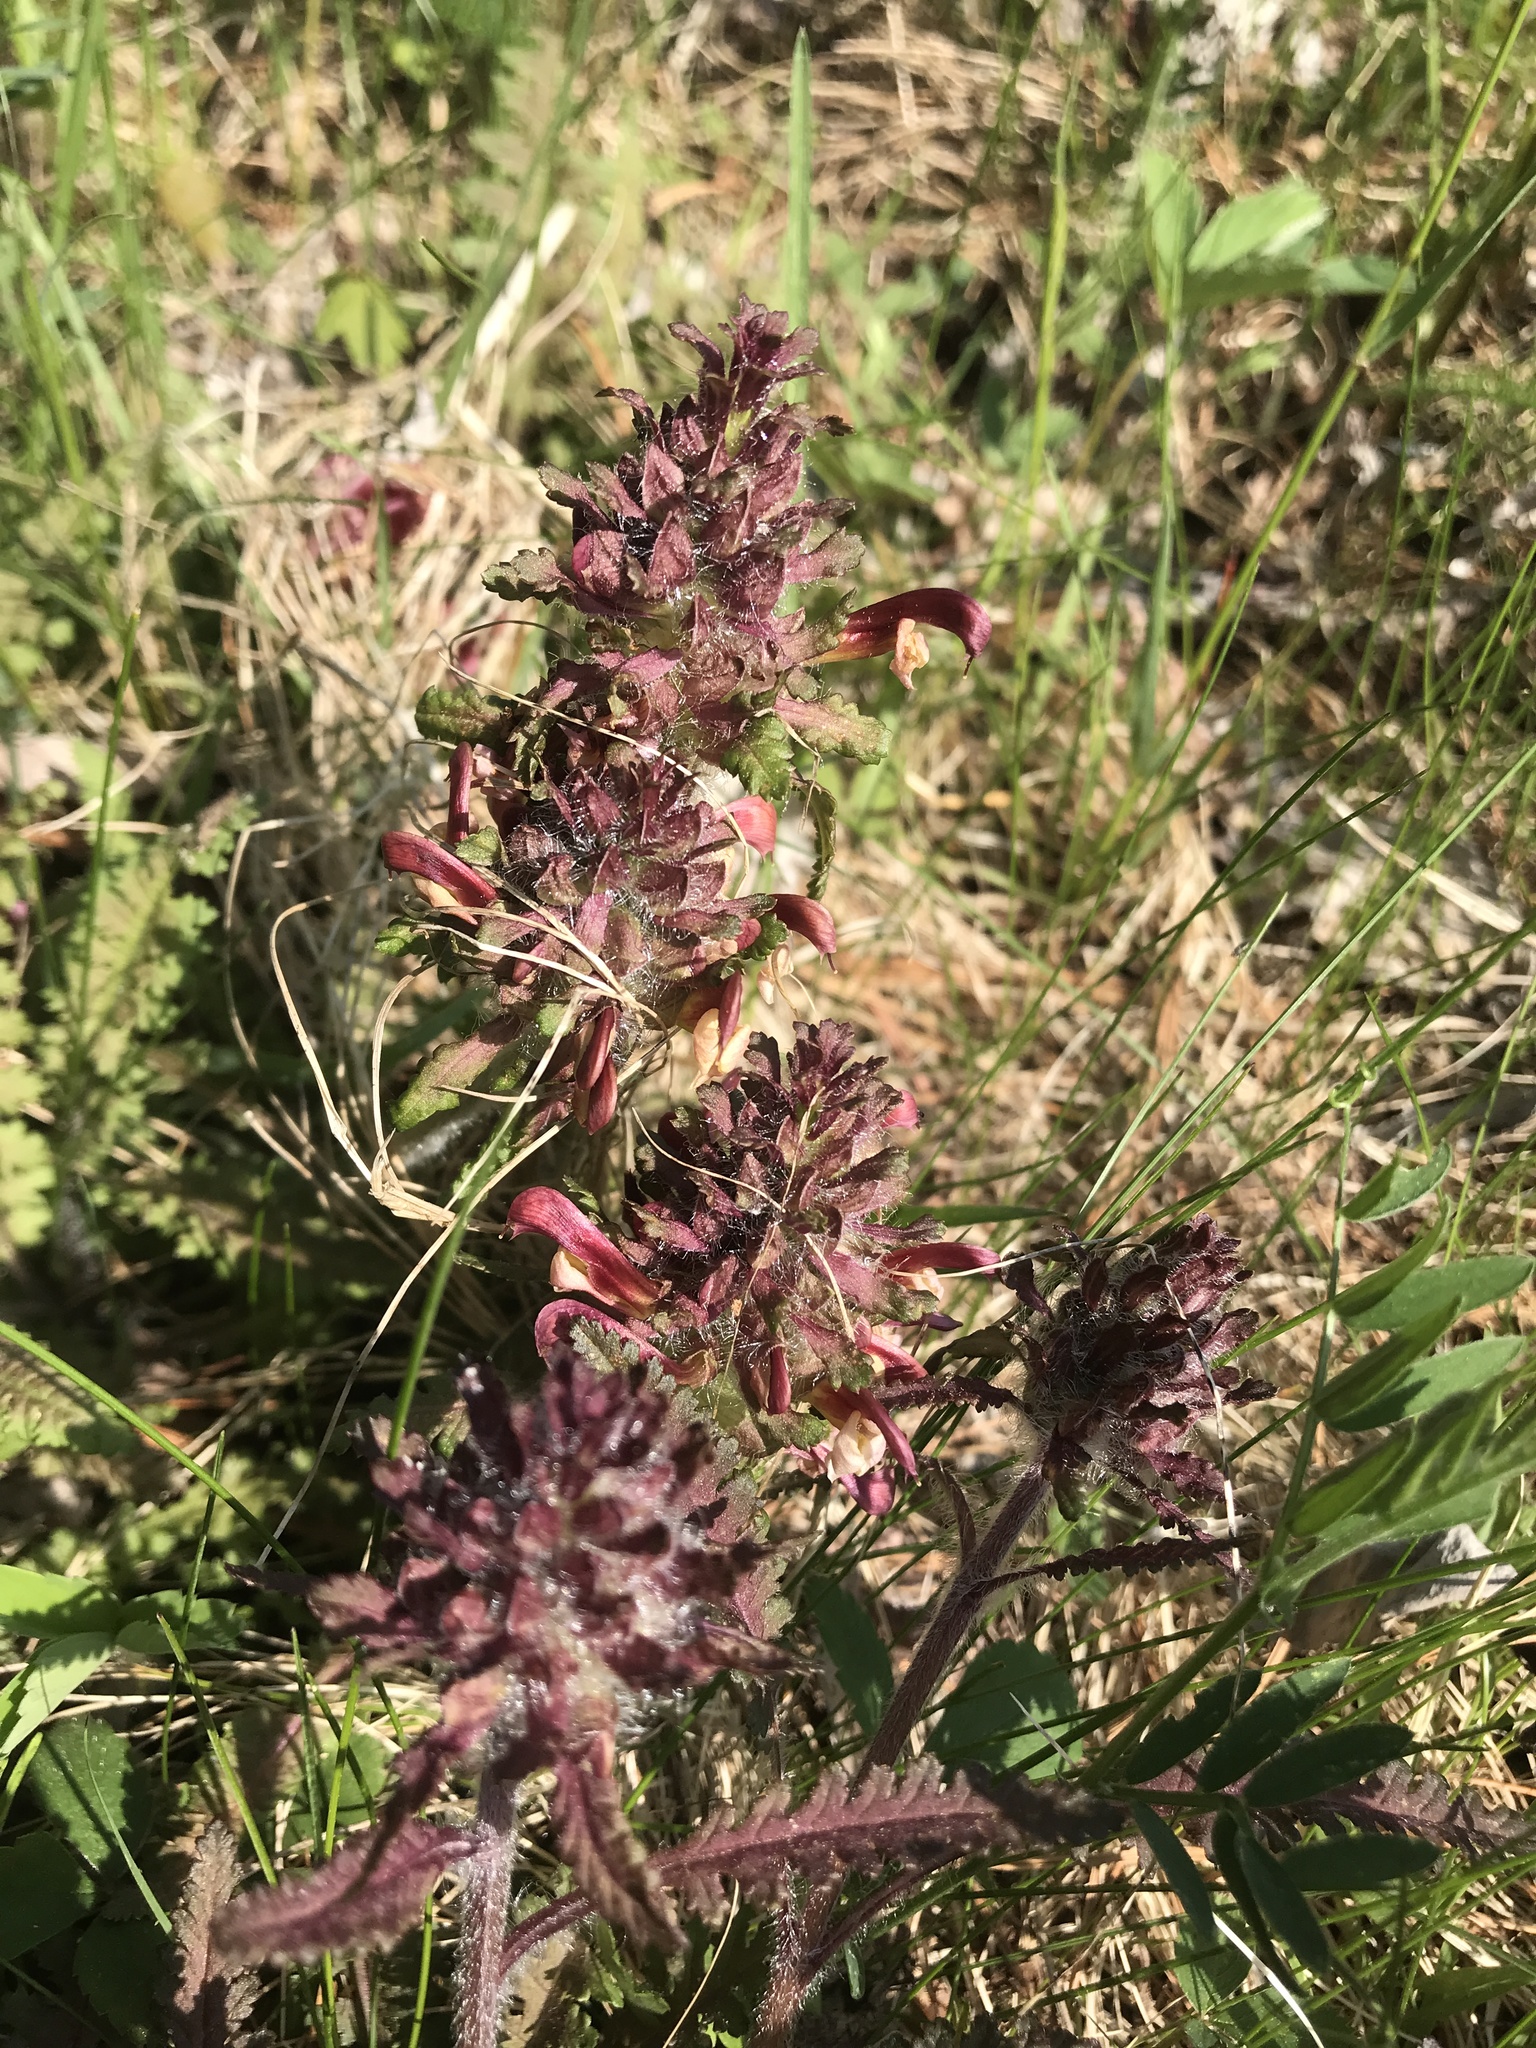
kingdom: Plantae
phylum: Tracheophyta
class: Magnoliopsida
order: Lamiales
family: Orobanchaceae
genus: Pedicularis
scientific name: Pedicularis canadensis
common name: Early lousewort
